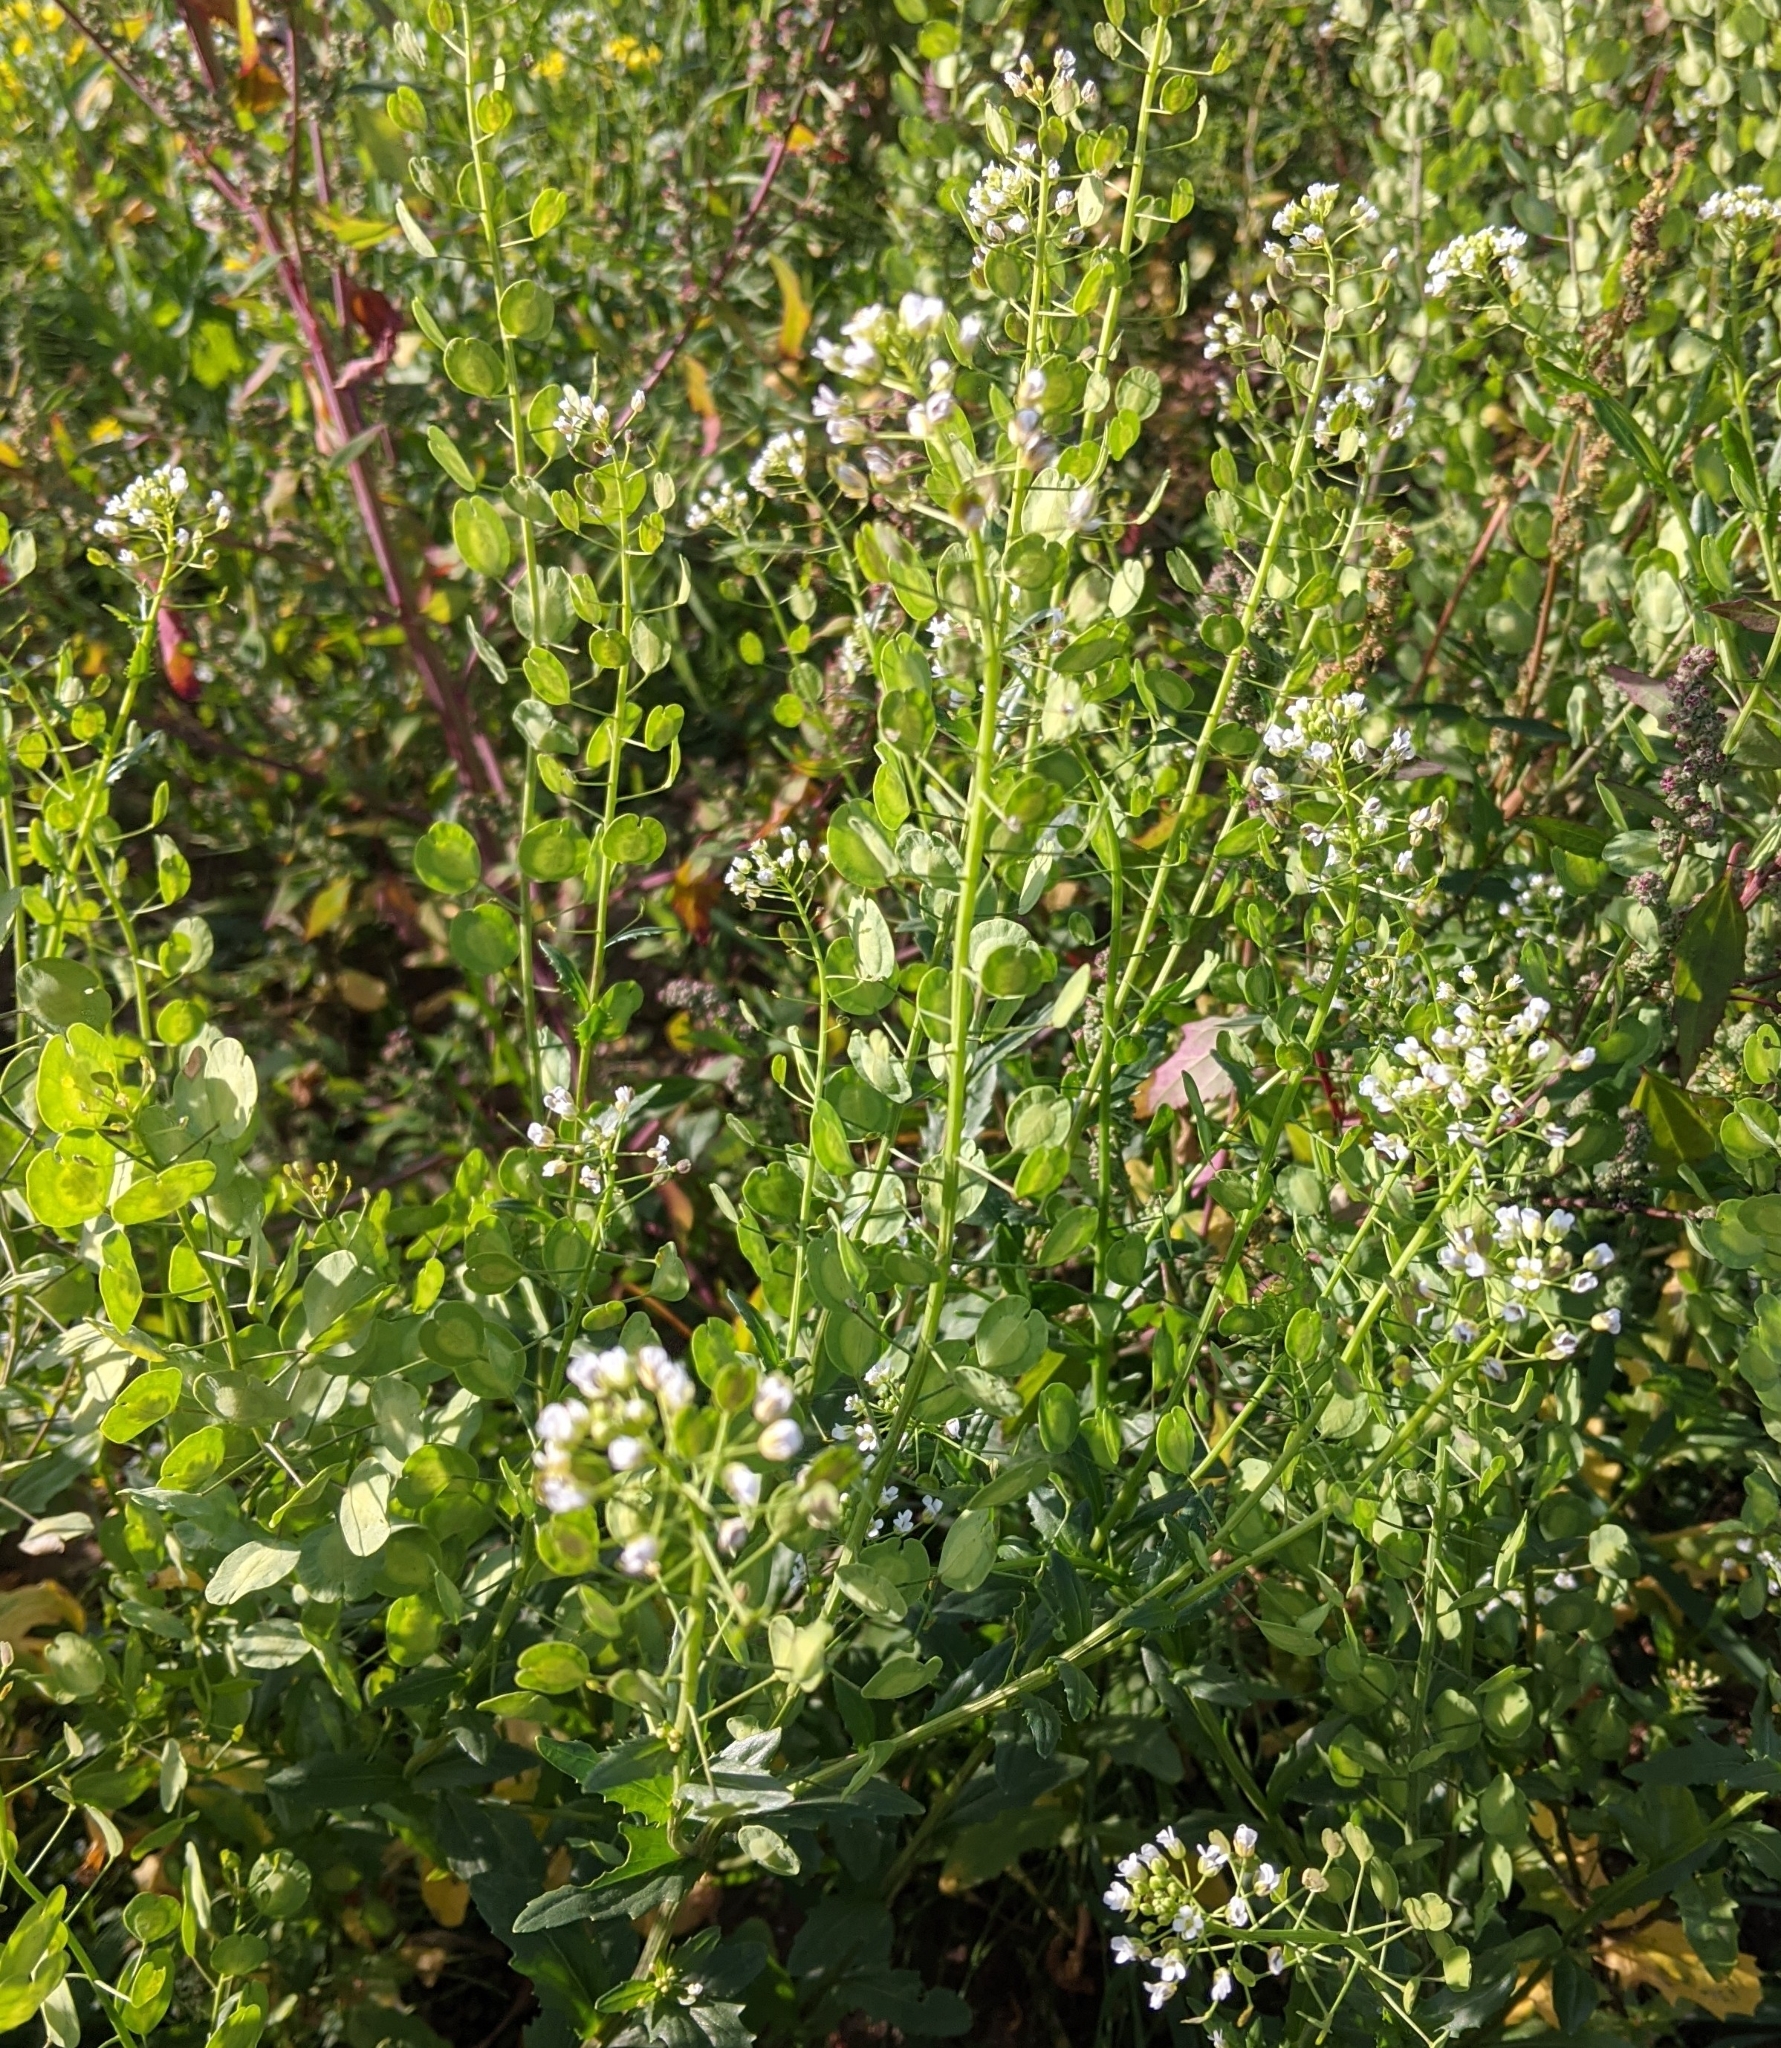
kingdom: Plantae
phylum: Tracheophyta
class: Magnoliopsida
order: Brassicales
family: Brassicaceae
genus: Thlaspi
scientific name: Thlaspi arvense
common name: Field pennycress
